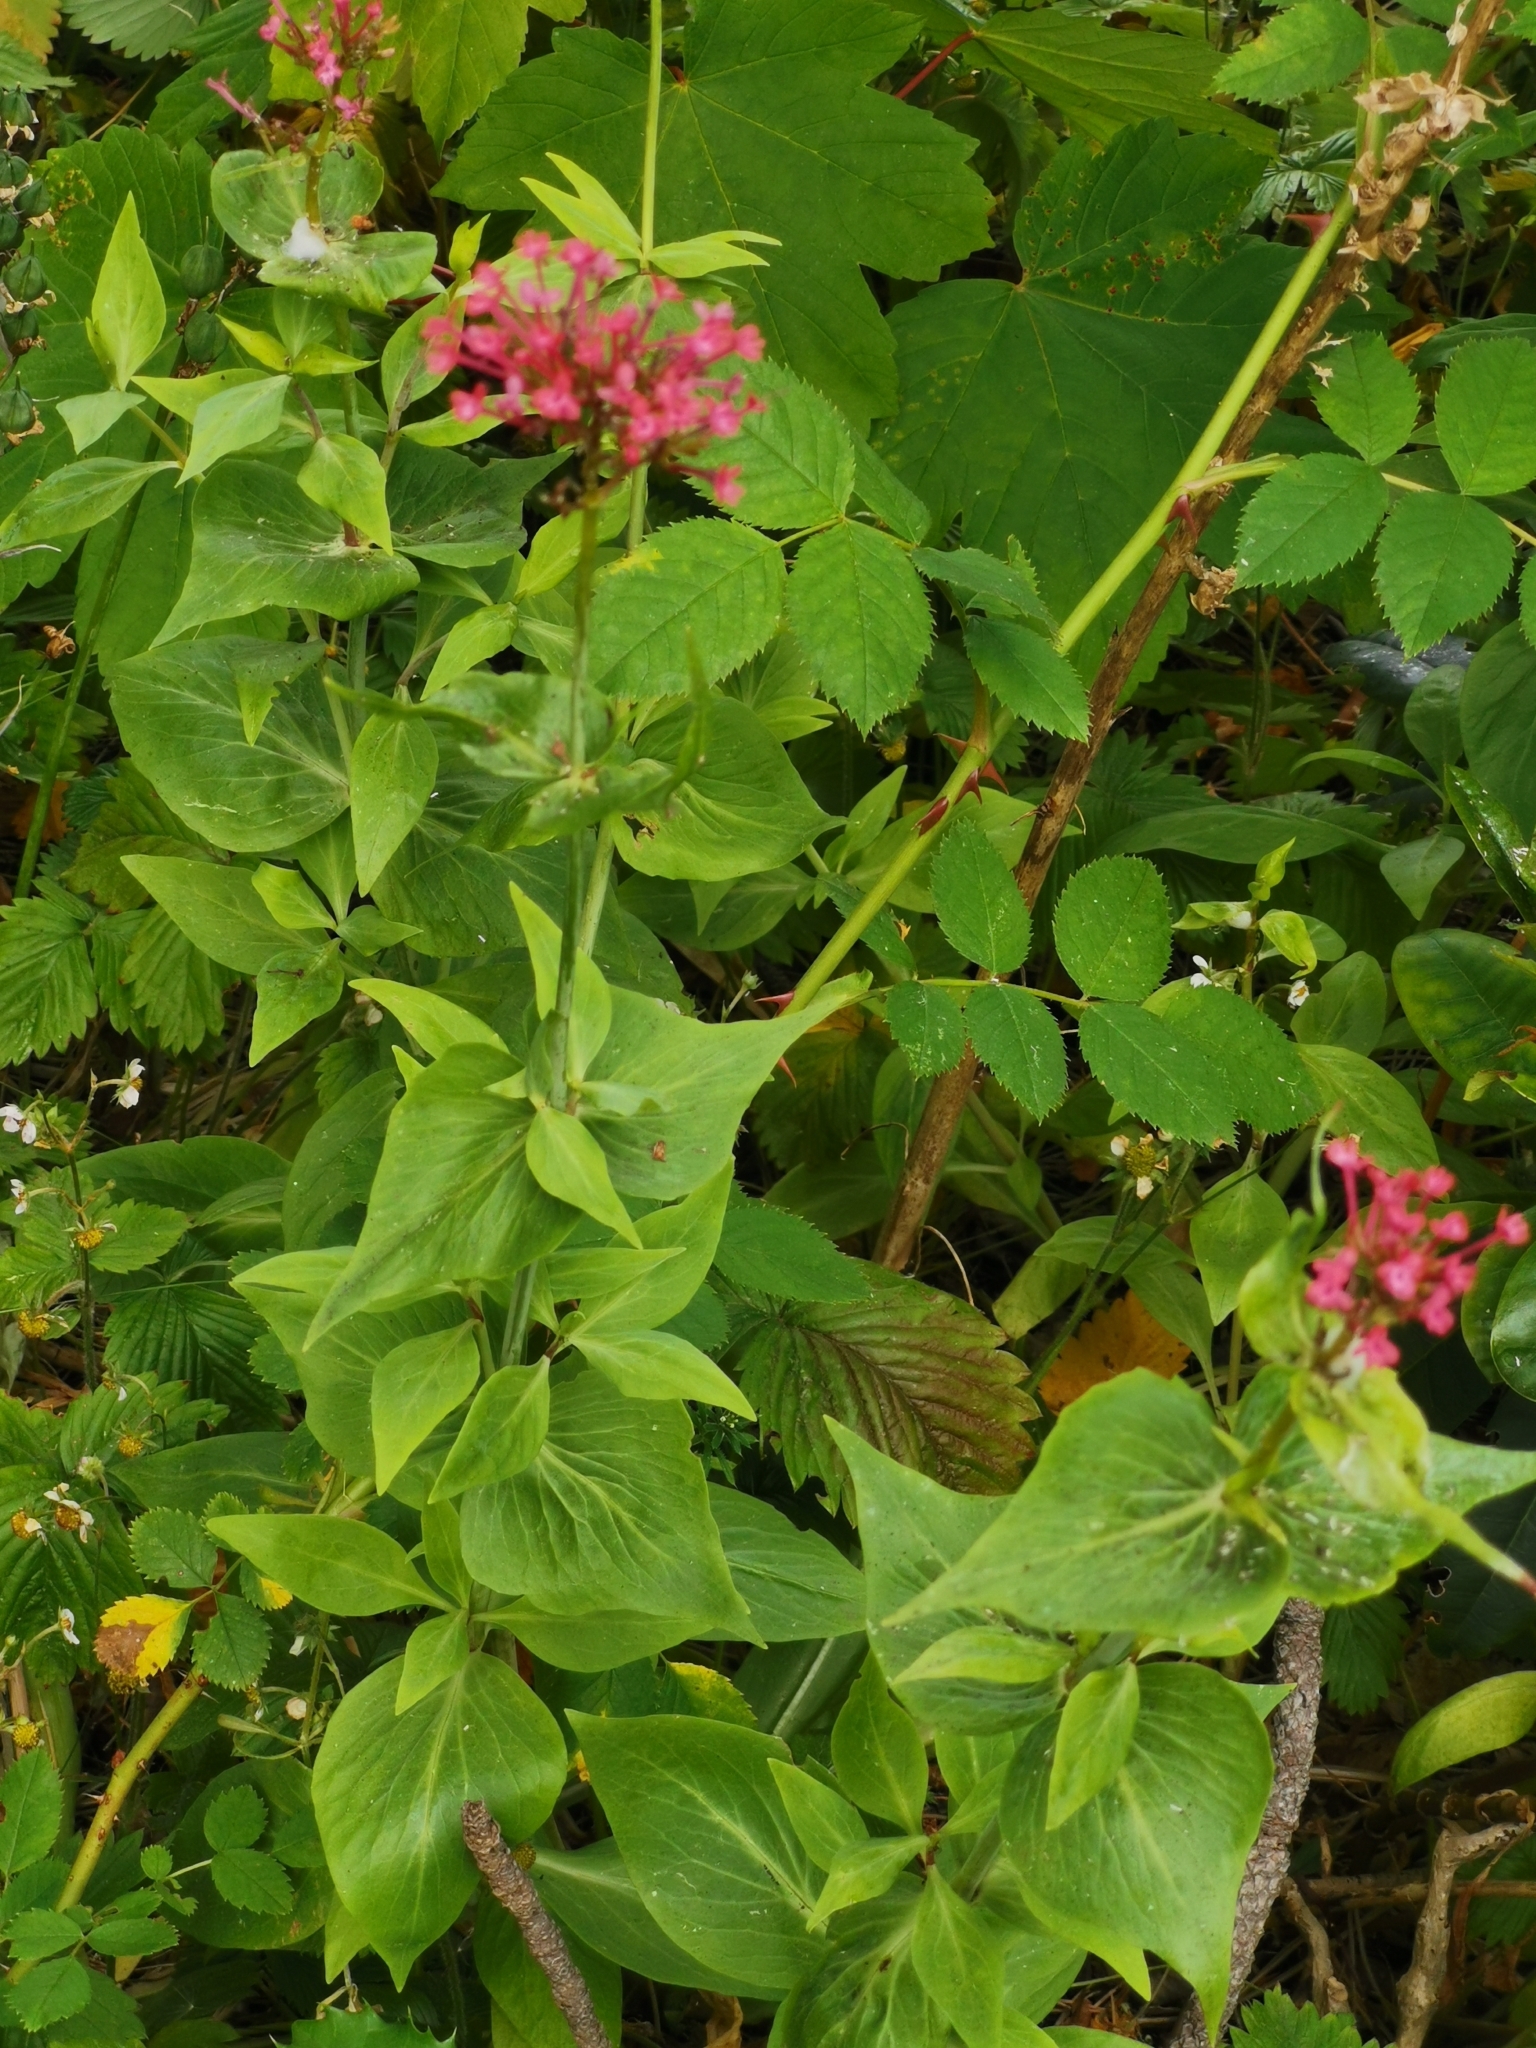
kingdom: Plantae
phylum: Tracheophyta
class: Magnoliopsida
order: Dipsacales
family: Caprifoliaceae
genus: Centranthus
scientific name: Centranthus ruber
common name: Red valerian
